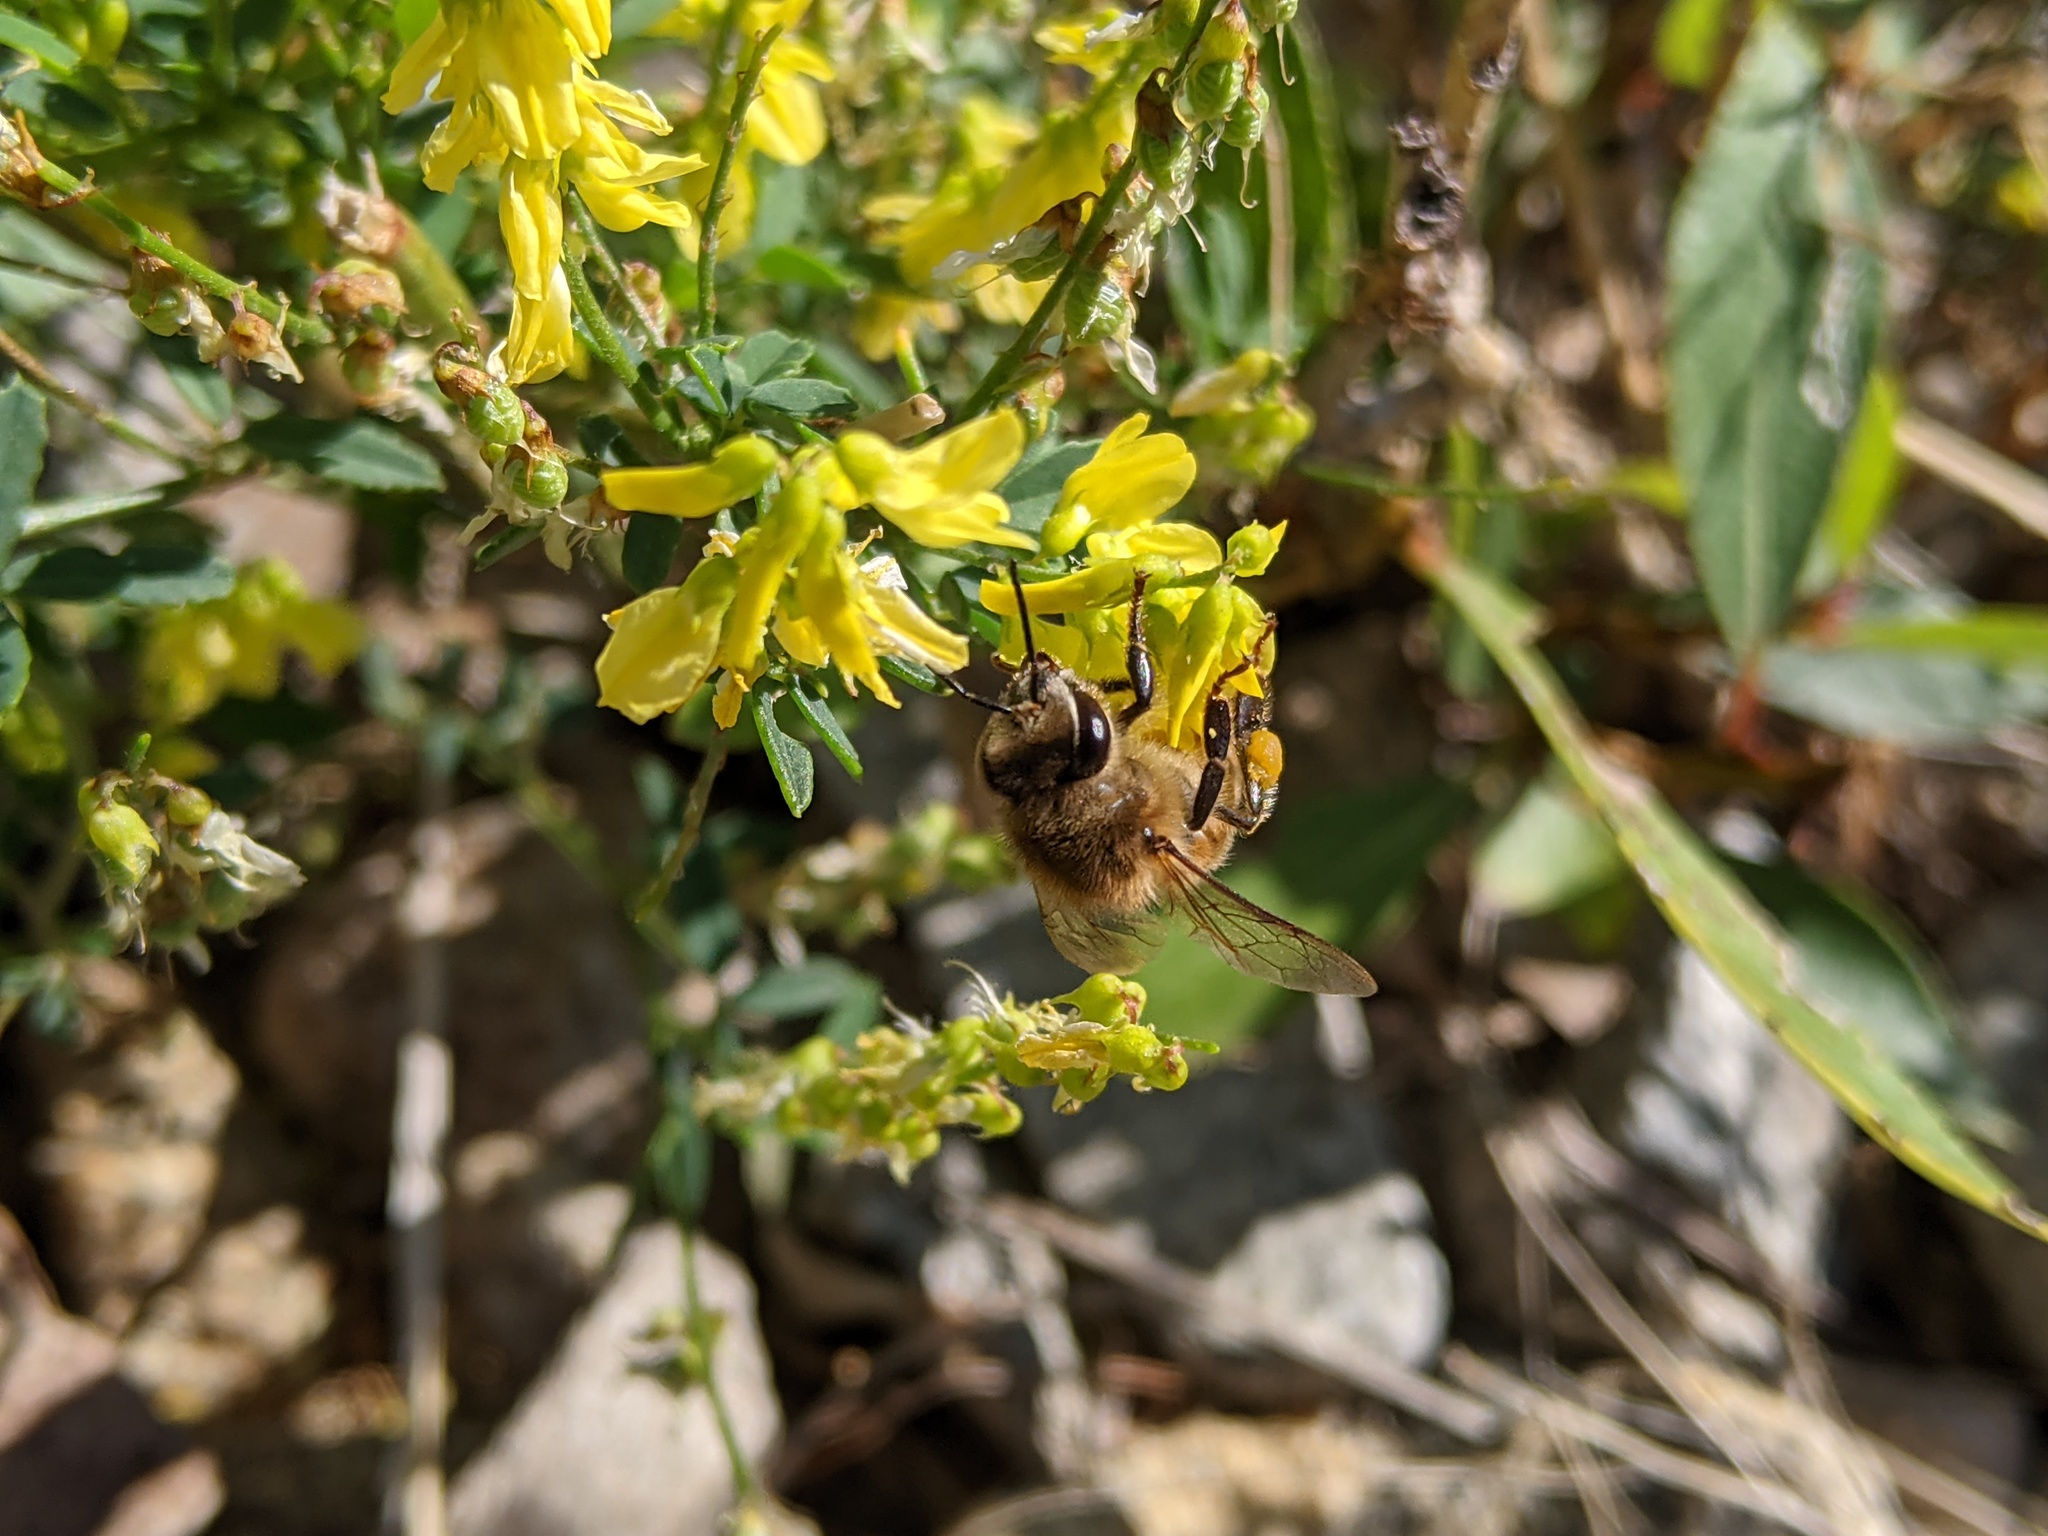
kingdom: Animalia
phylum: Arthropoda
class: Insecta
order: Hymenoptera
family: Apidae
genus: Apis
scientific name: Apis mellifera
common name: Honey bee
